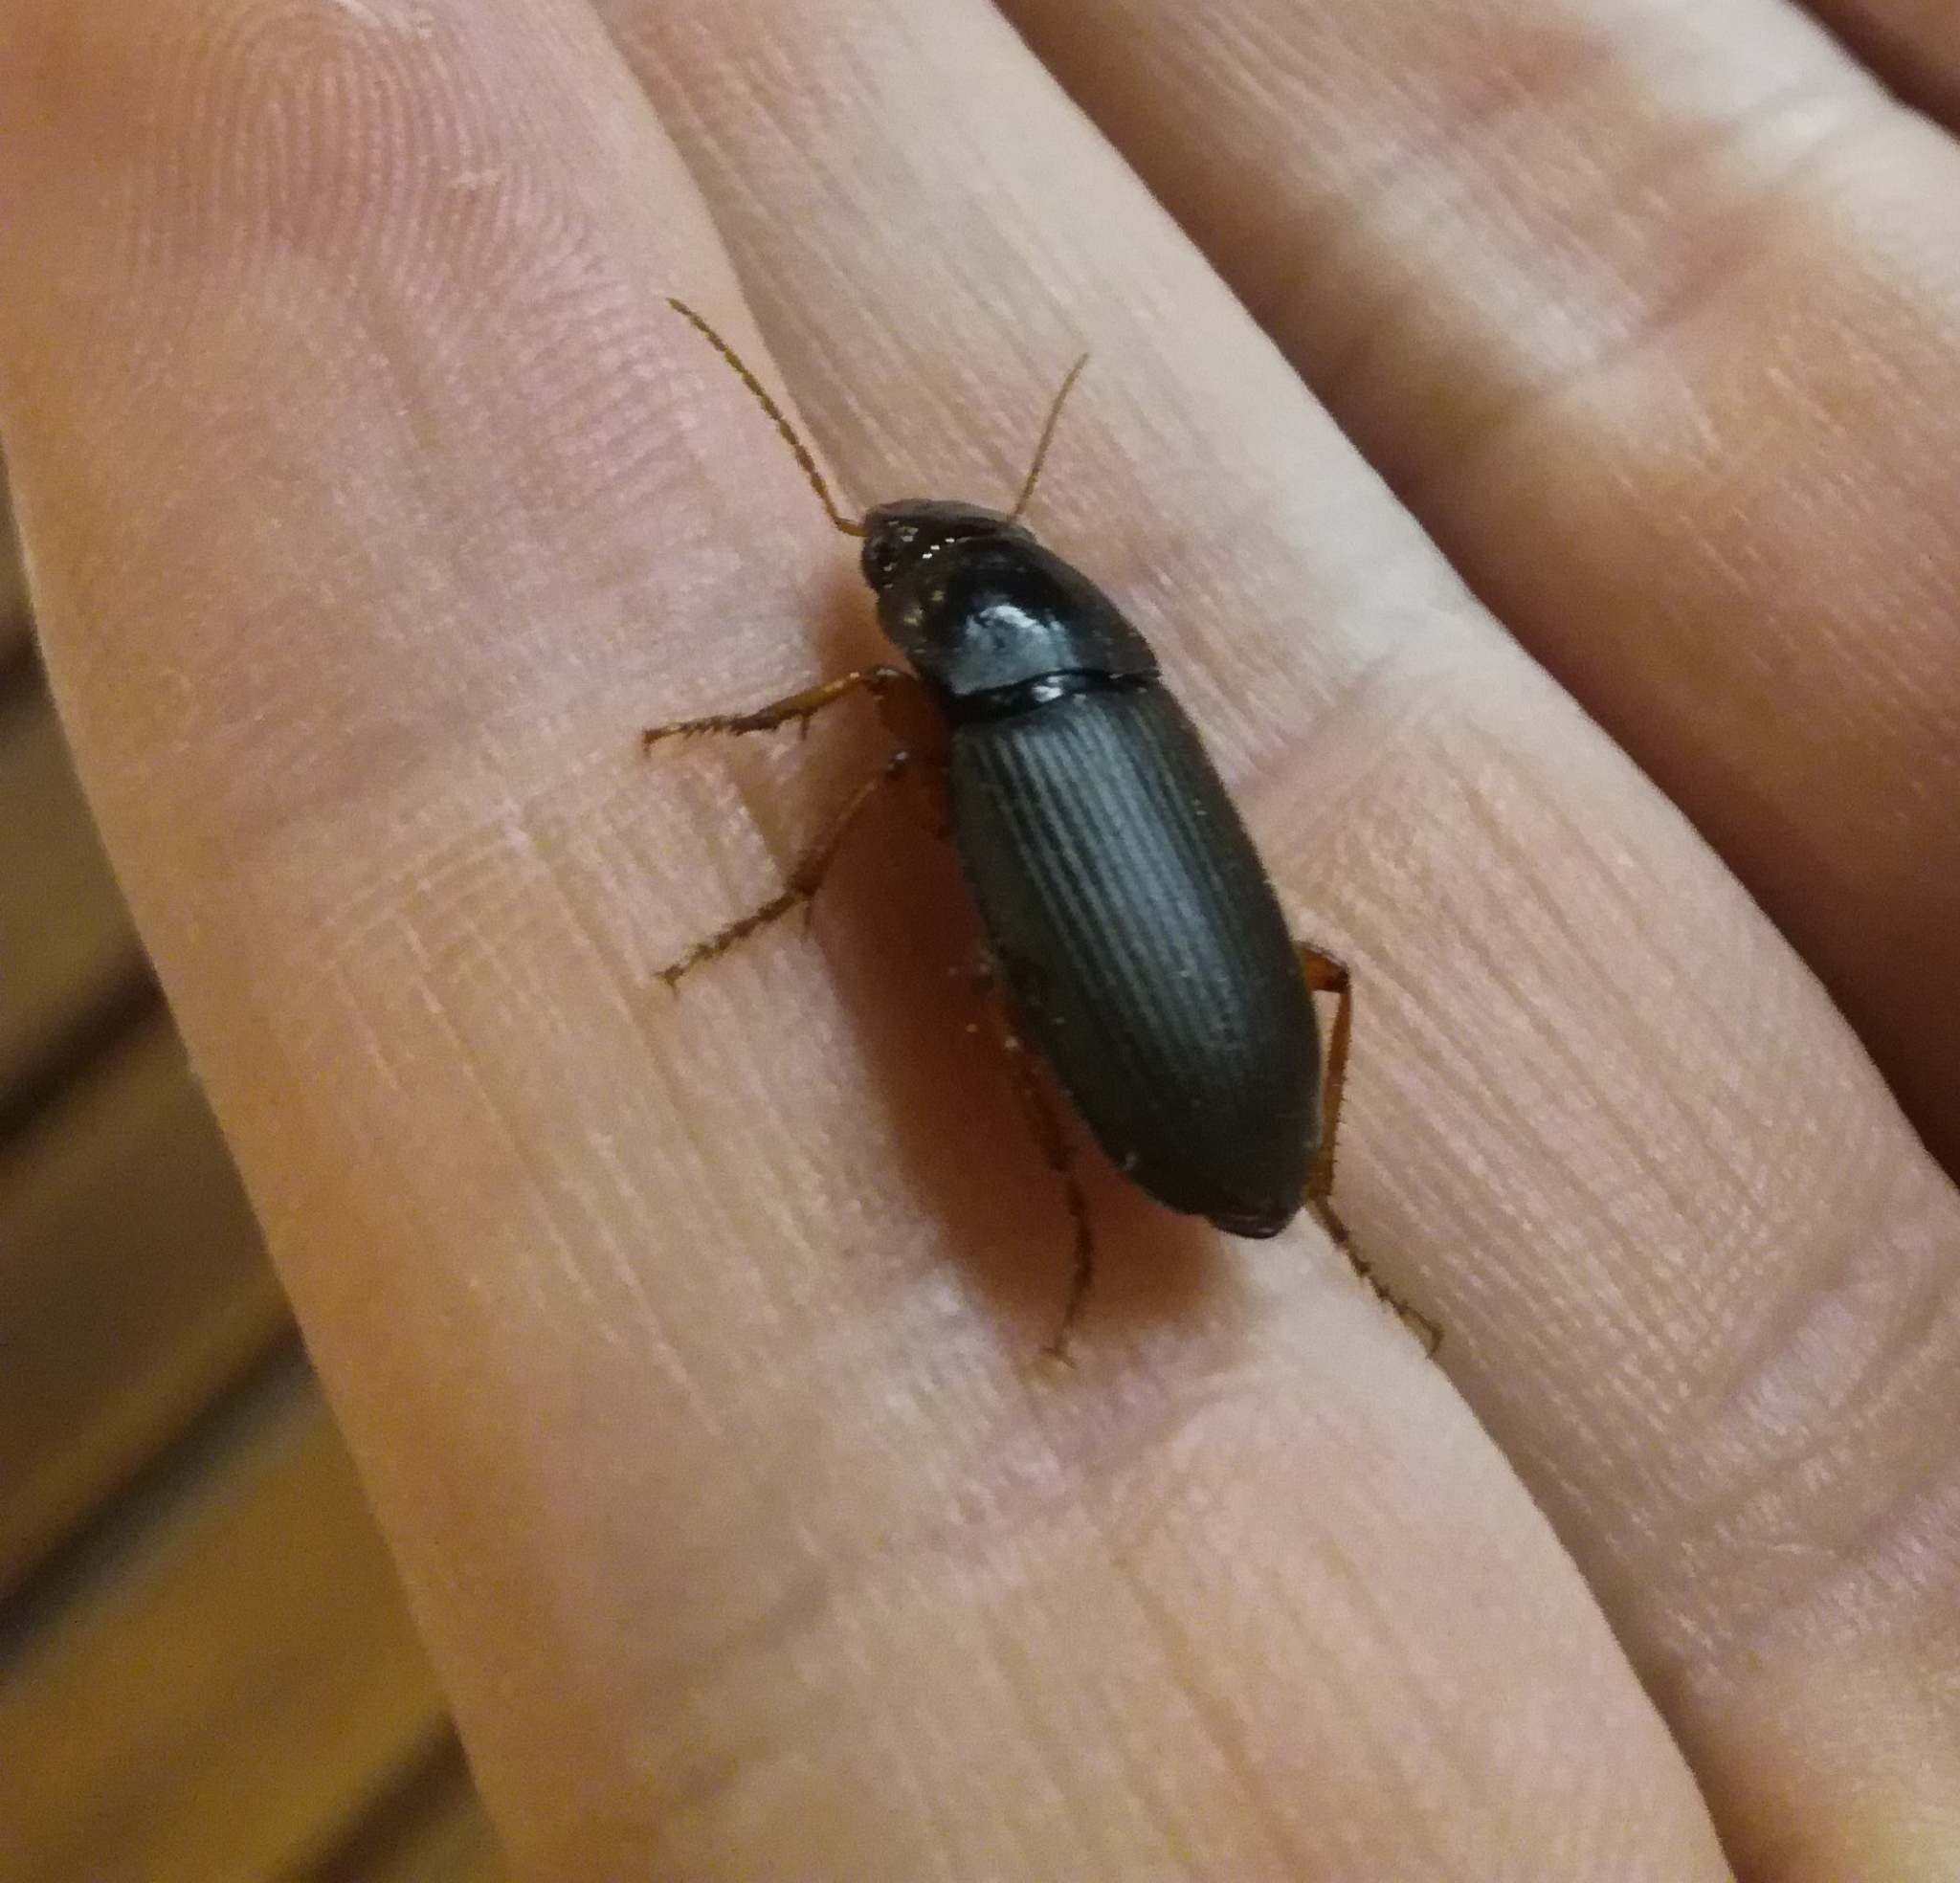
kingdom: Animalia
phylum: Arthropoda
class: Insecta
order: Coleoptera
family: Carabidae
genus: Harpalus
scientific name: Harpalus rufipes
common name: Strawberry harp ground beetle
